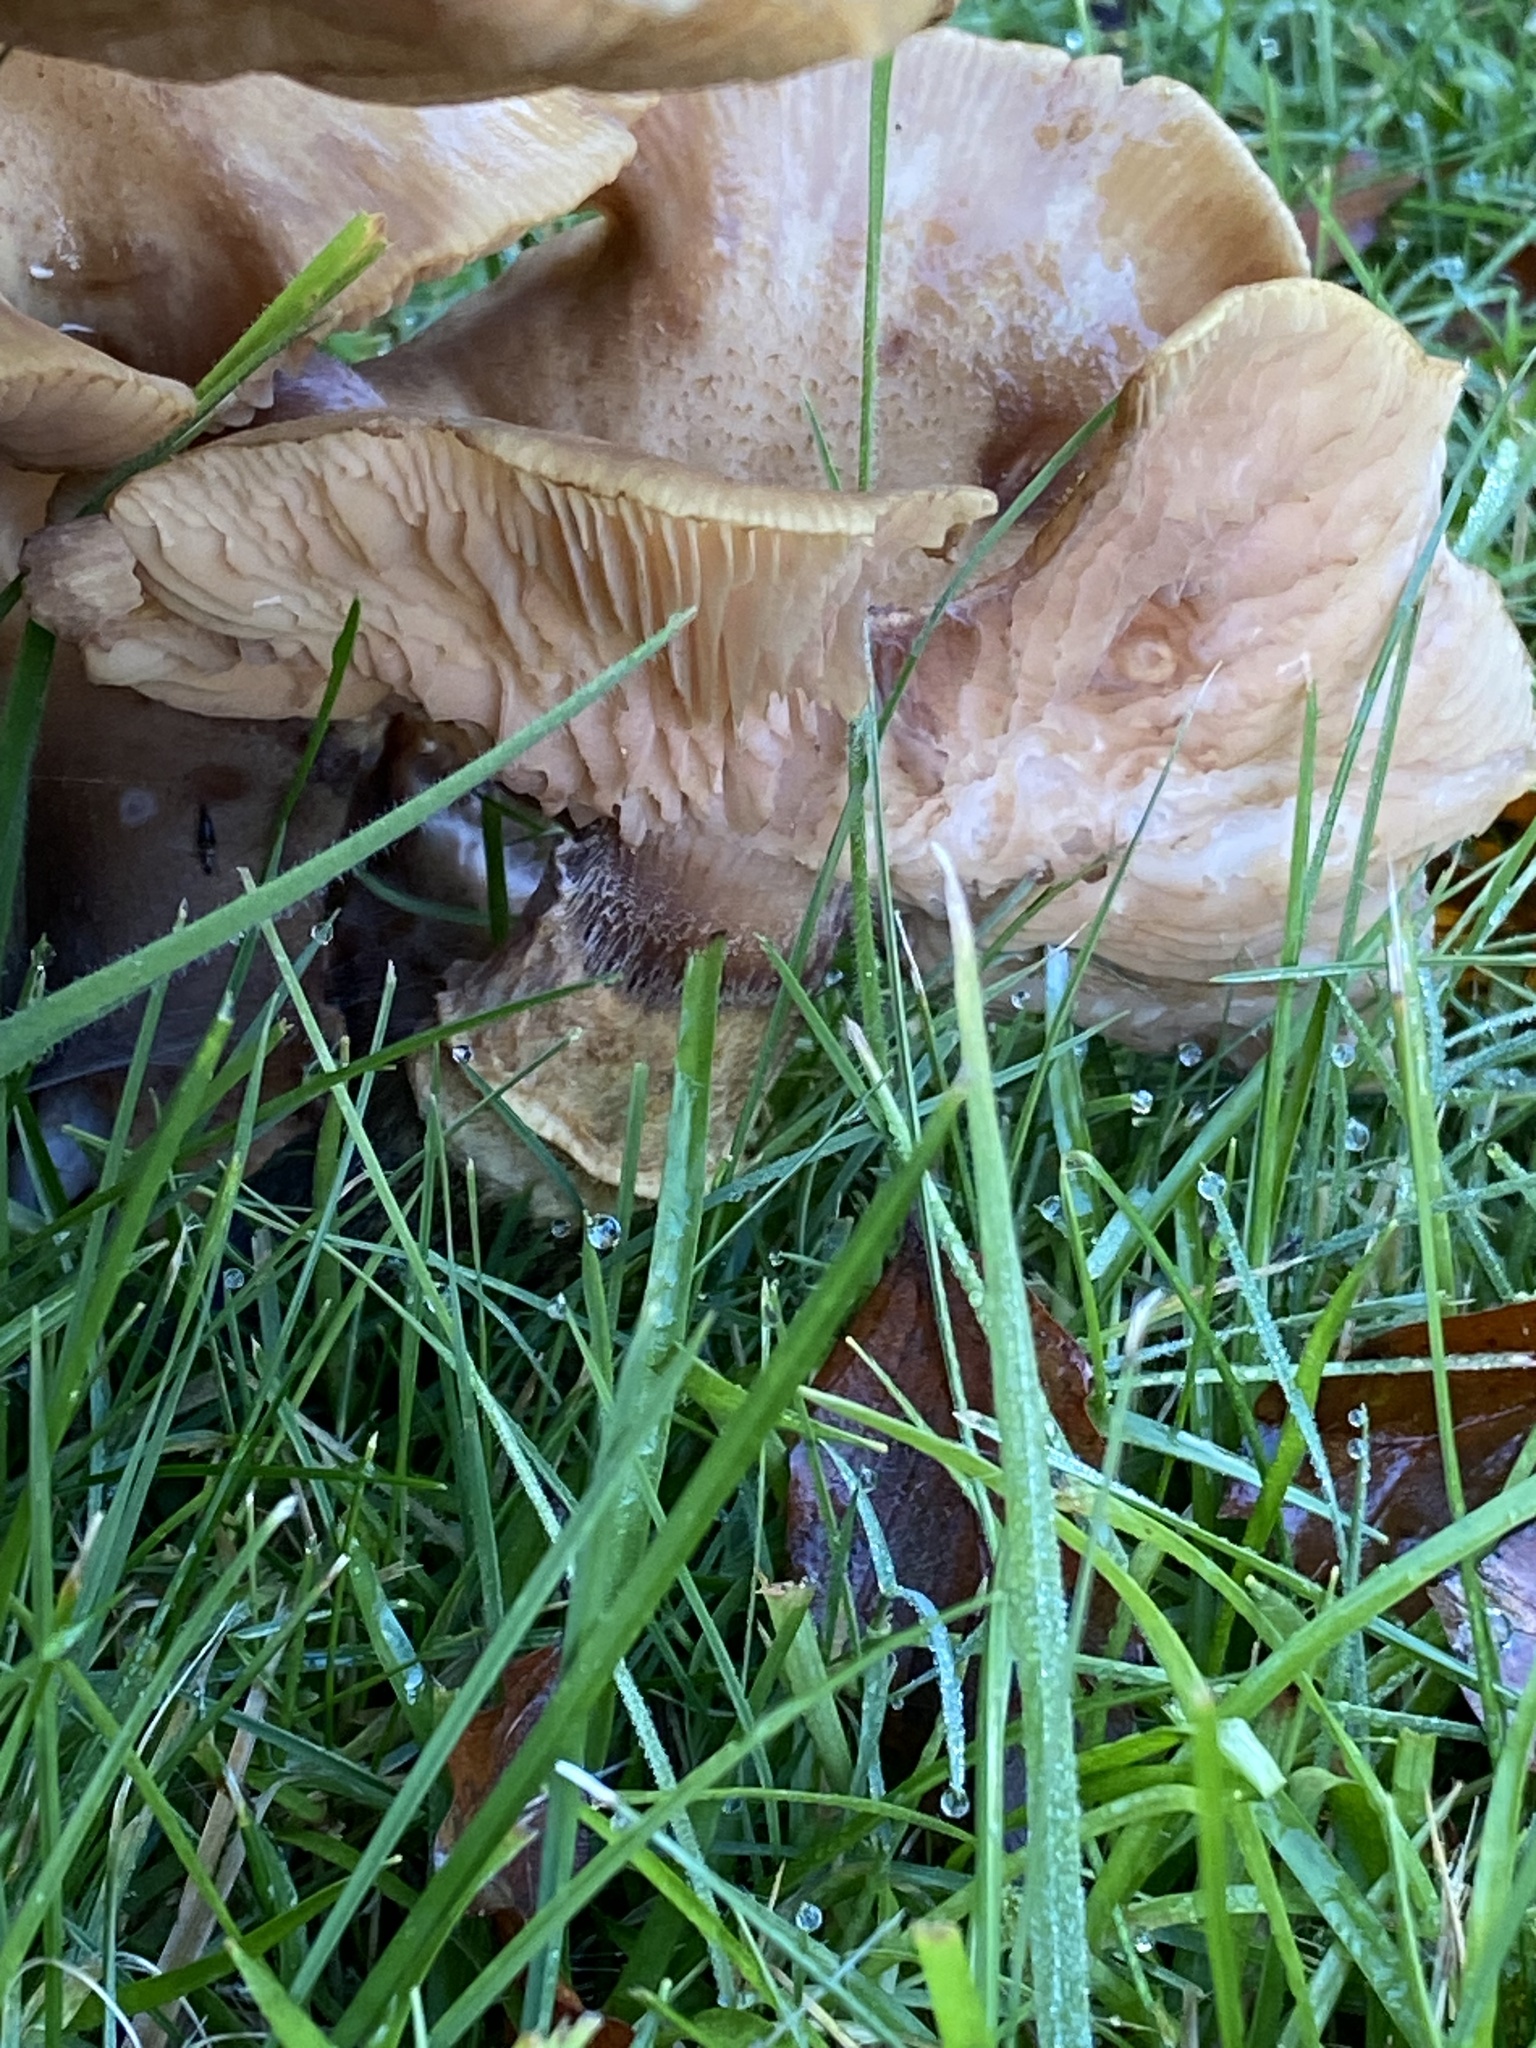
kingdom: Fungi
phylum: Basidiomycota
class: Agaricomycetes
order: Agaricales
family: Physalacriaceae
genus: Armillaria
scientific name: Armillaria mellea
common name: Honey fungus
